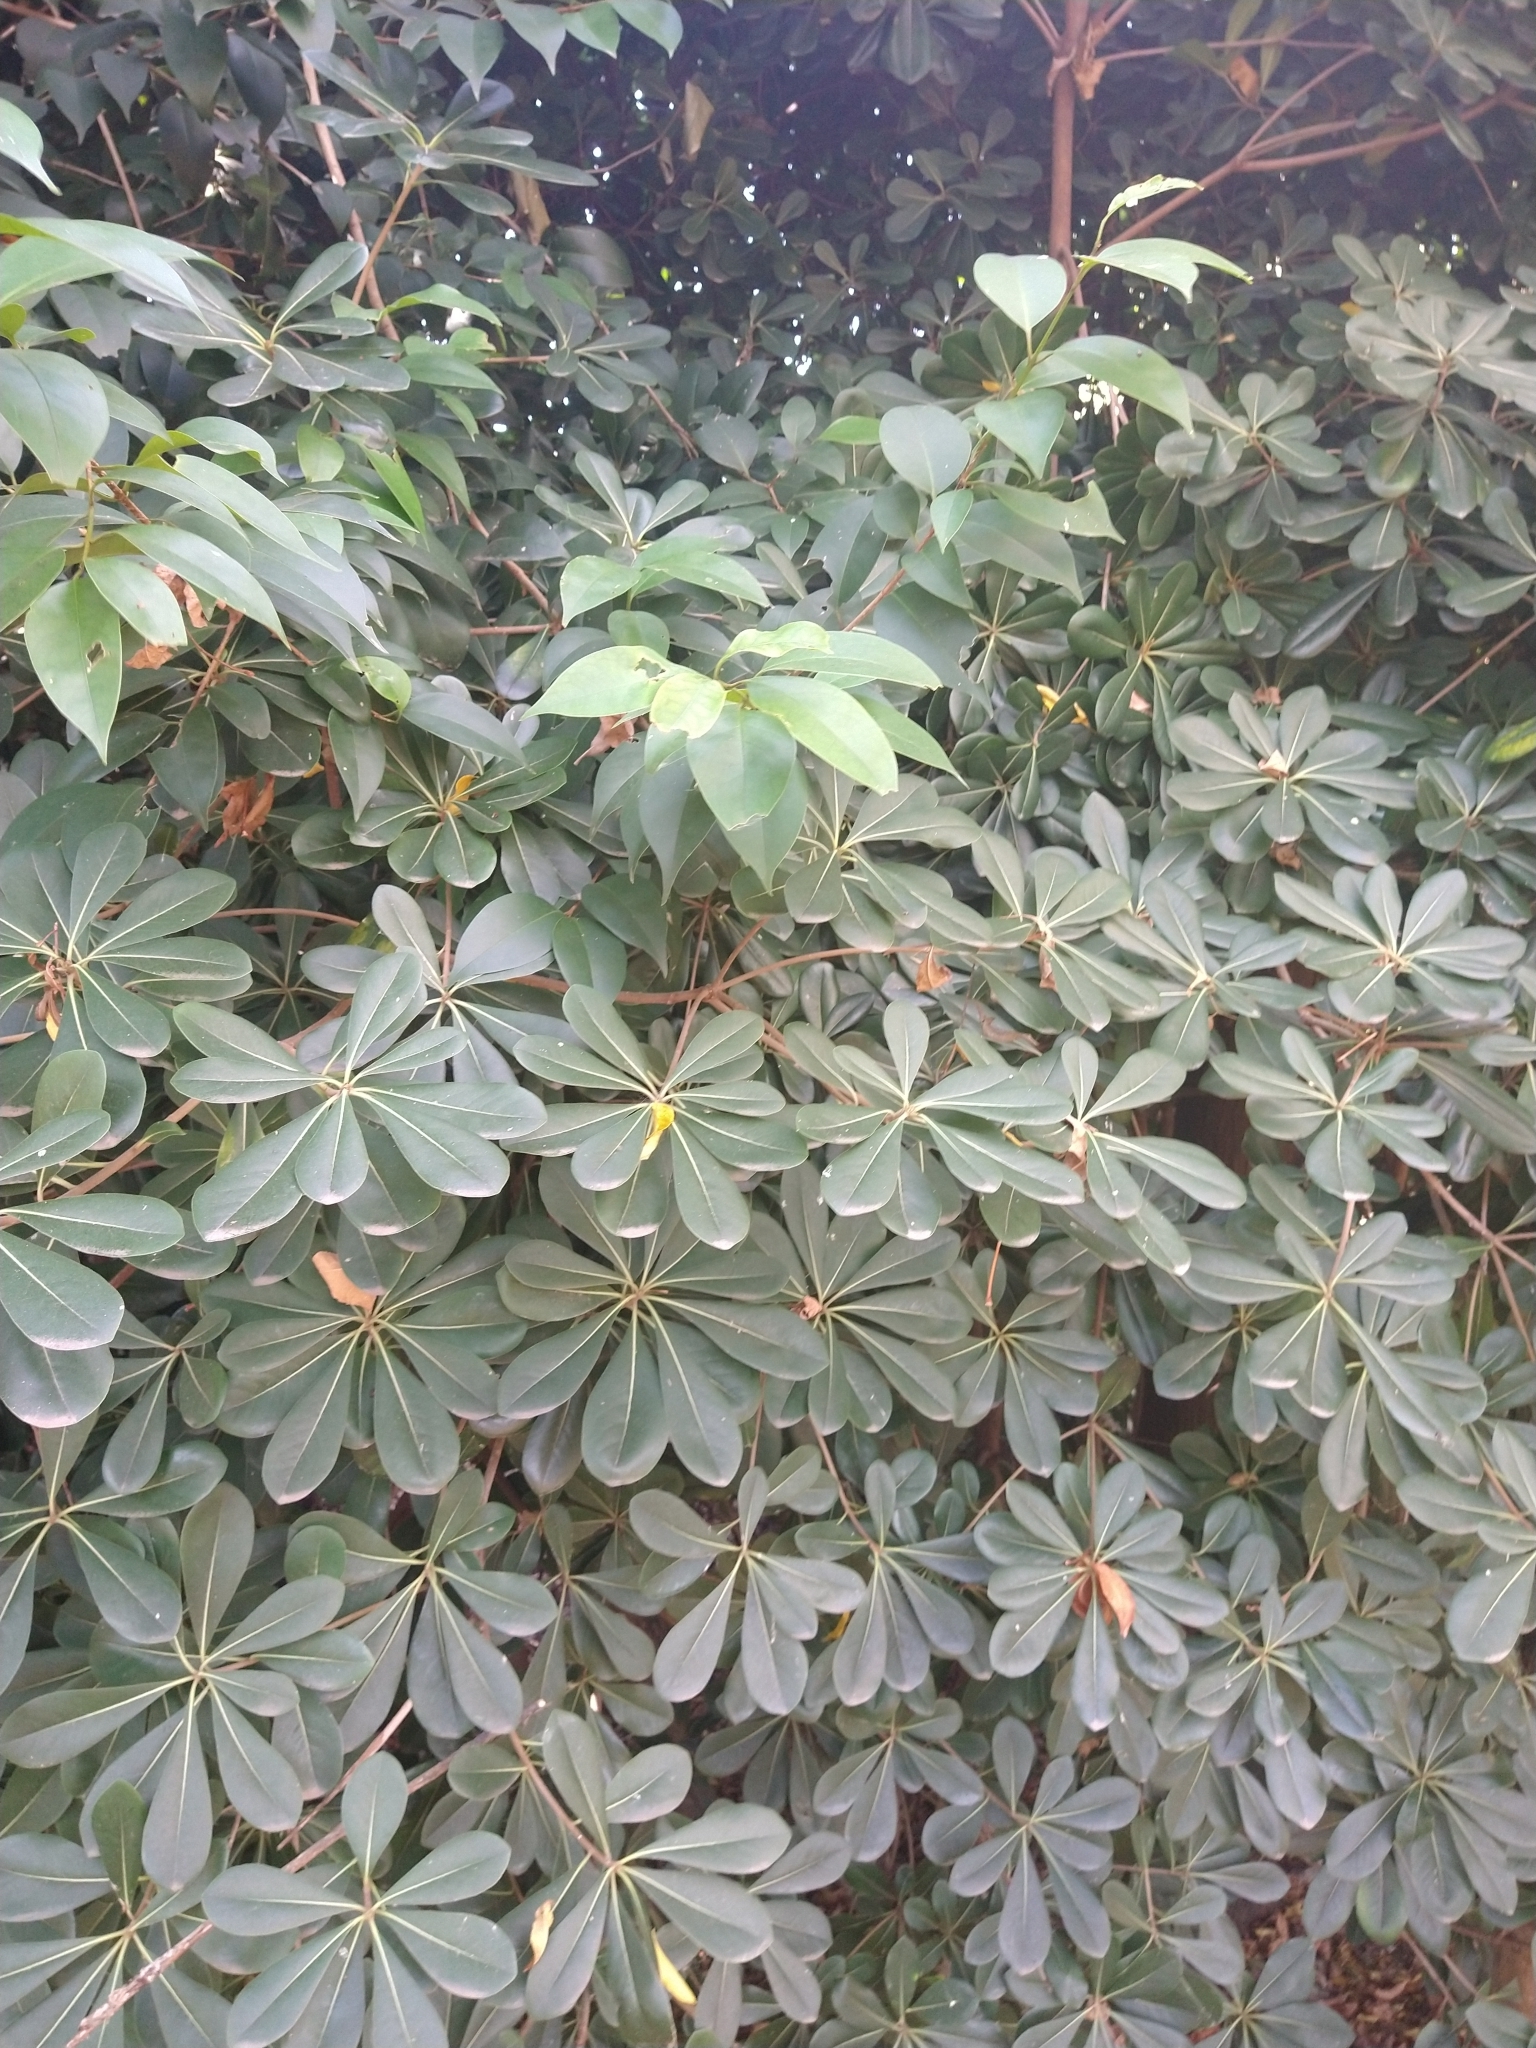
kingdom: Plantae
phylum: Tracheophyta
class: Magnoliopsida
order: Apiales
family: Pittosporaceae
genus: Pittosporum
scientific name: Pittosporum tobira
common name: Japanese cheesewood
